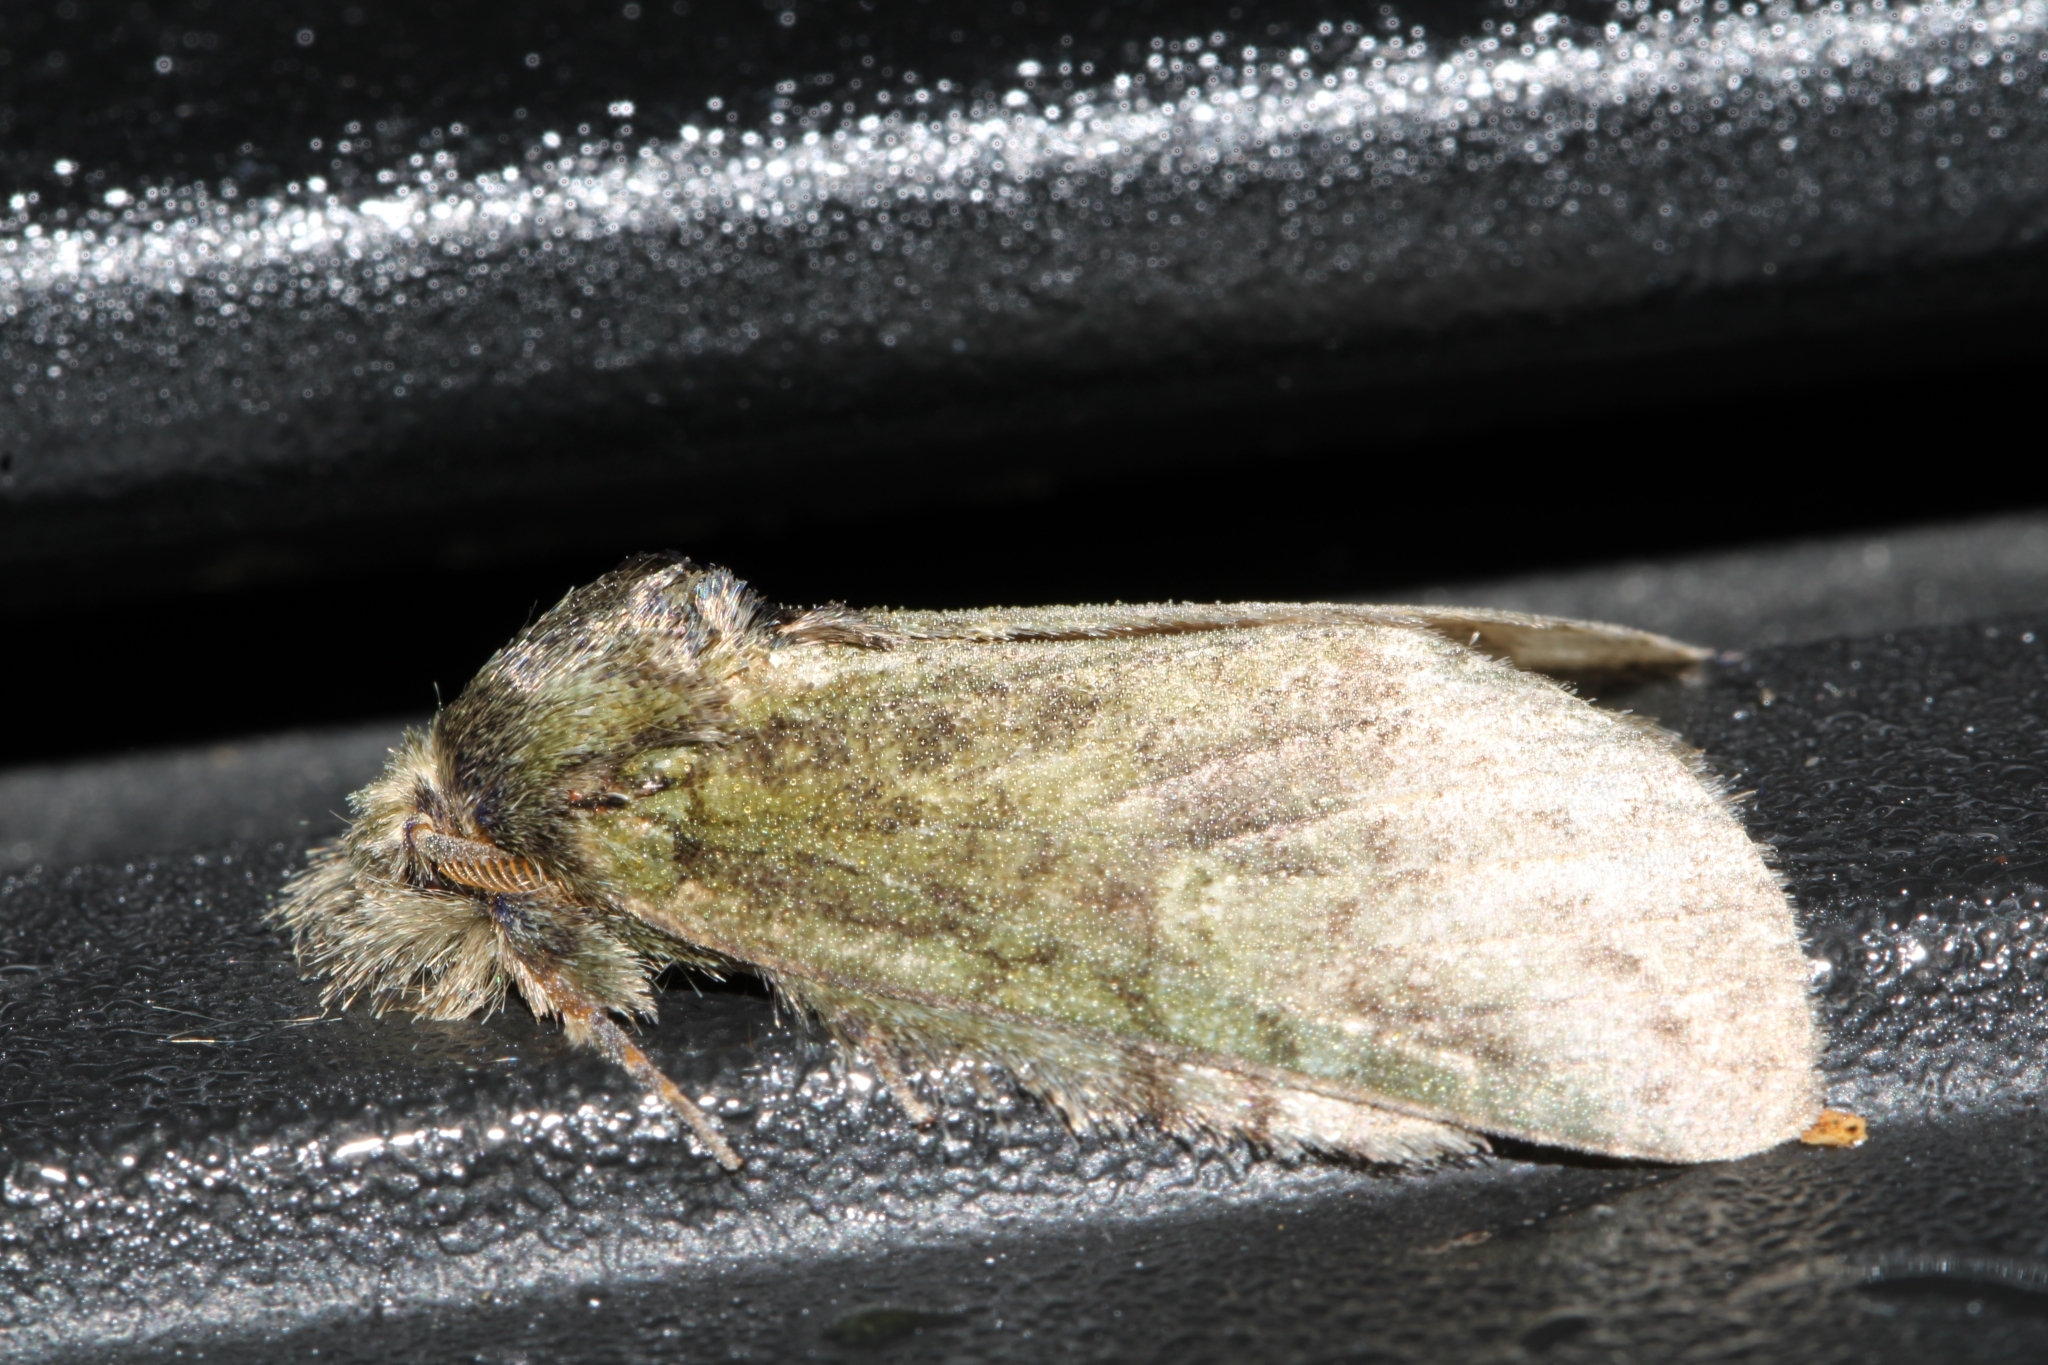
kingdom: Animalia
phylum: Arthropoda
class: Insecta
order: Lepidoptera
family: Notodontidae
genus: Disphragis
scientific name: Disphragis Cecrita guttivitta
